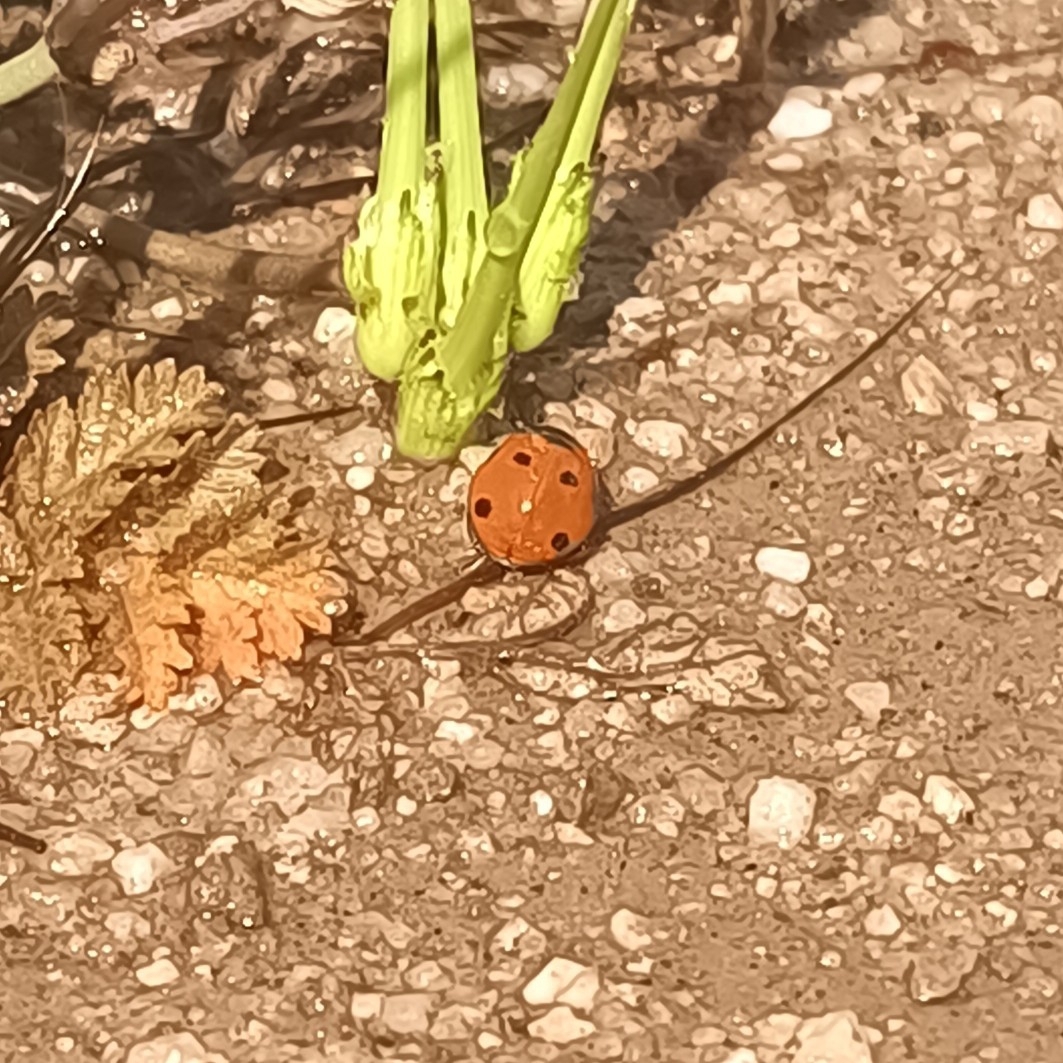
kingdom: Animalia
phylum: Arthropoda
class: Insecta
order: Coleoptera
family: Coccinellidae
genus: Coccinella
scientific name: Coccinella septempunctata
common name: Sevenspotted lady beetle
